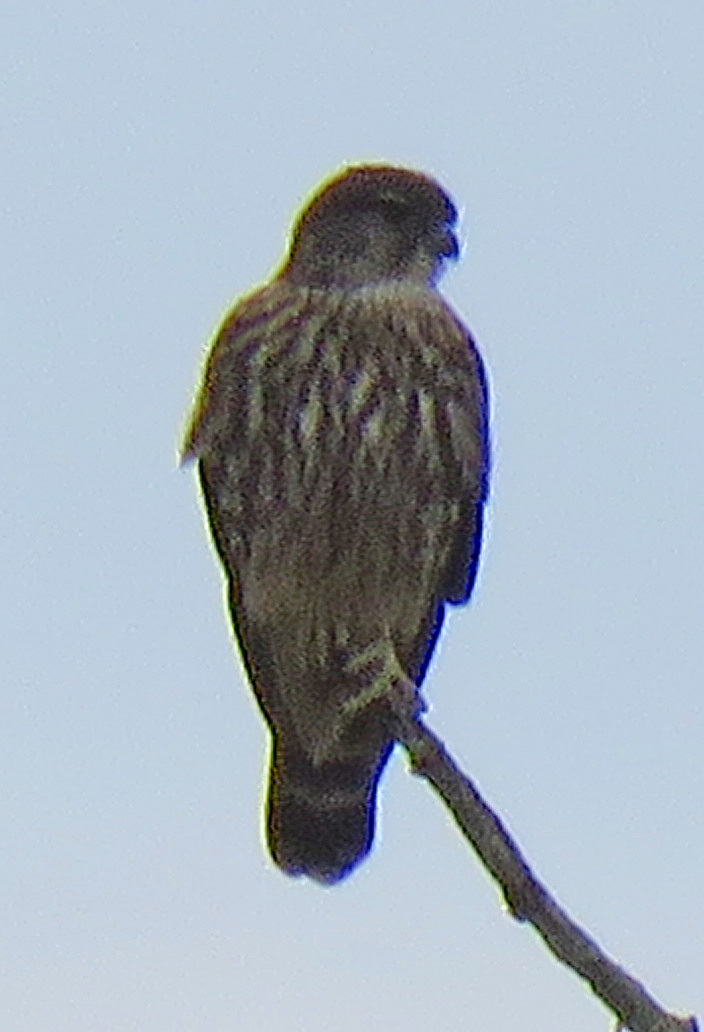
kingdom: Animalia
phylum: Chordata
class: Aves
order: Falconiformes
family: Falconidae
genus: Falco
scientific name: Falco columbarius
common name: Merlin
